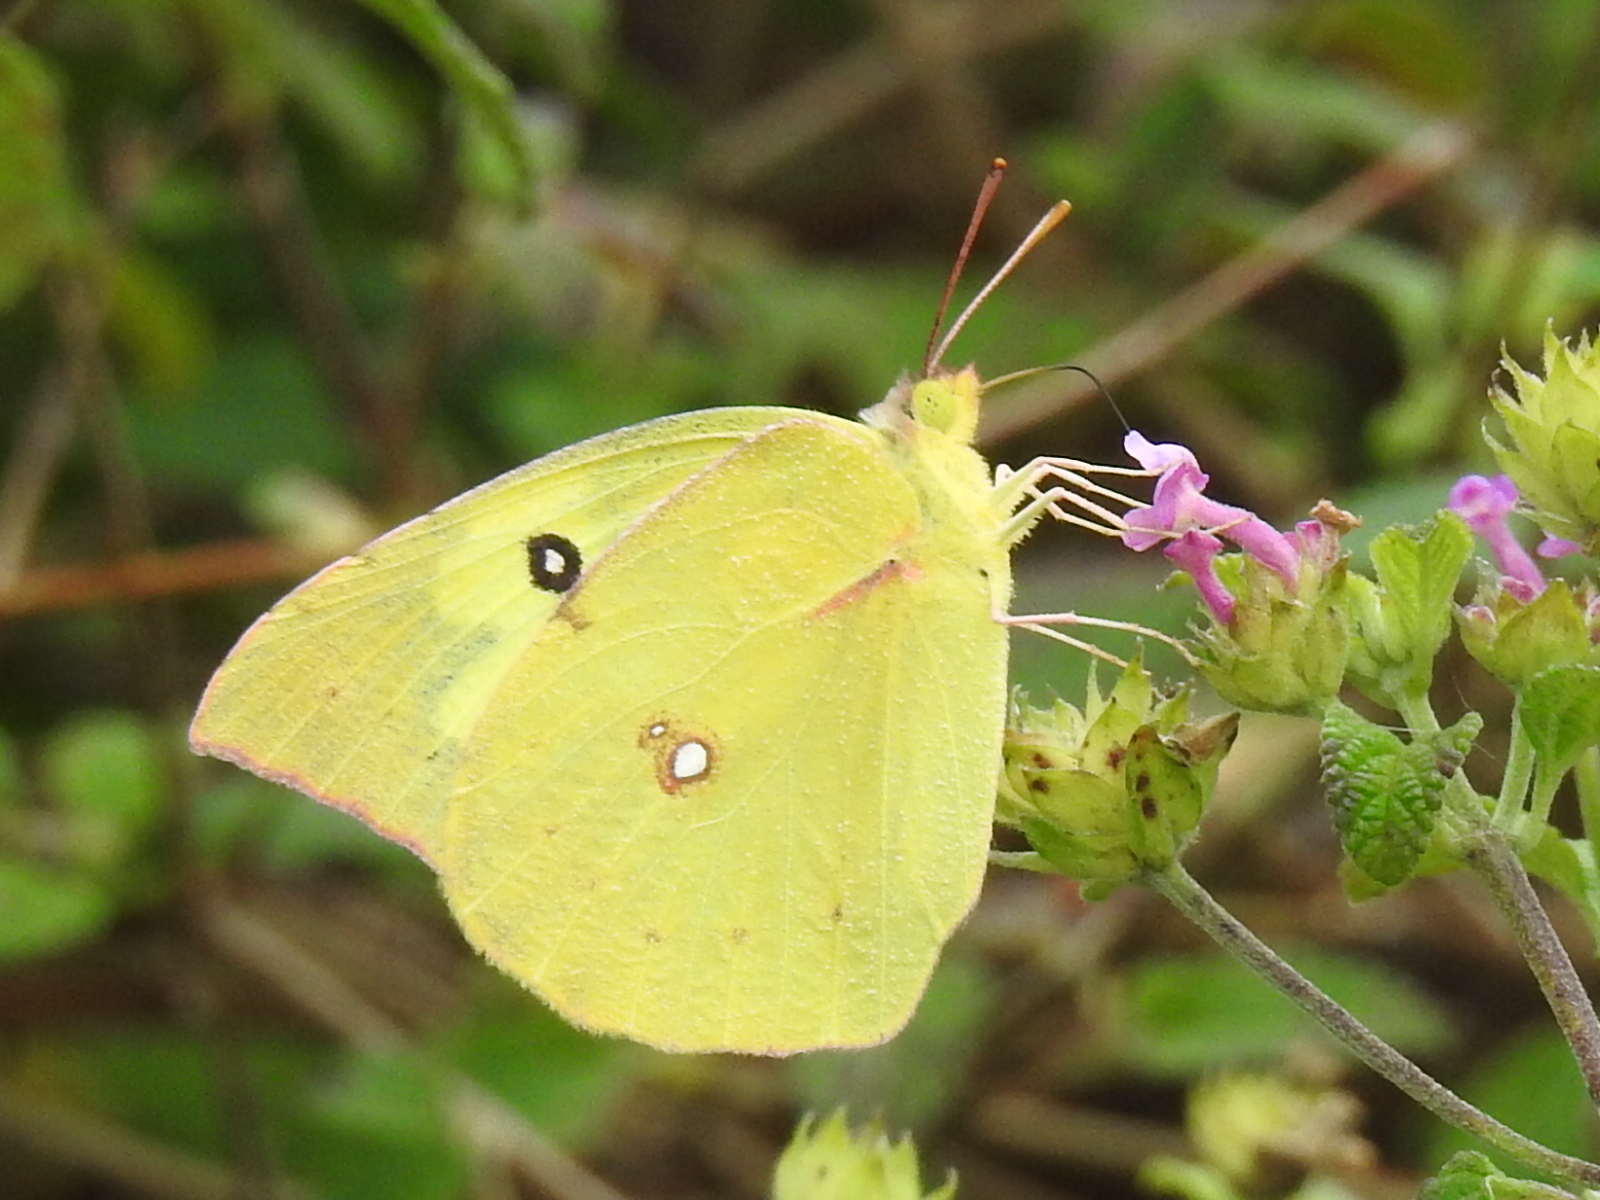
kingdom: Animalia
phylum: Arthropoda
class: Insecta
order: Lepidoptera
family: Pieridae
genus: Zerene
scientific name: Zerene cesonia
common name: Southern dogface
